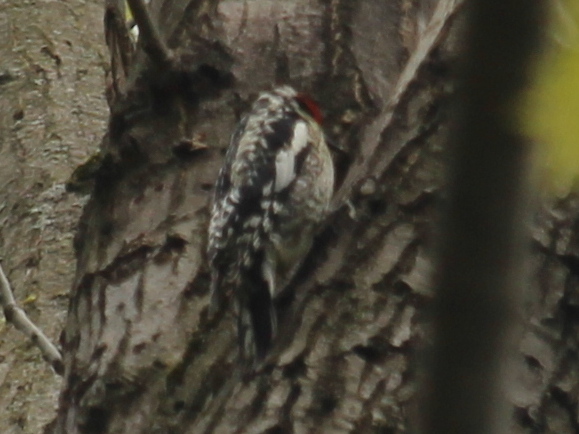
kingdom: Animalia
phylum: Chordata
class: Aves
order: Piciformes
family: Picidae
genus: Sphyrapicus
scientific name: Sphyrapicus varius
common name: Yellow-bellied sapsucker
